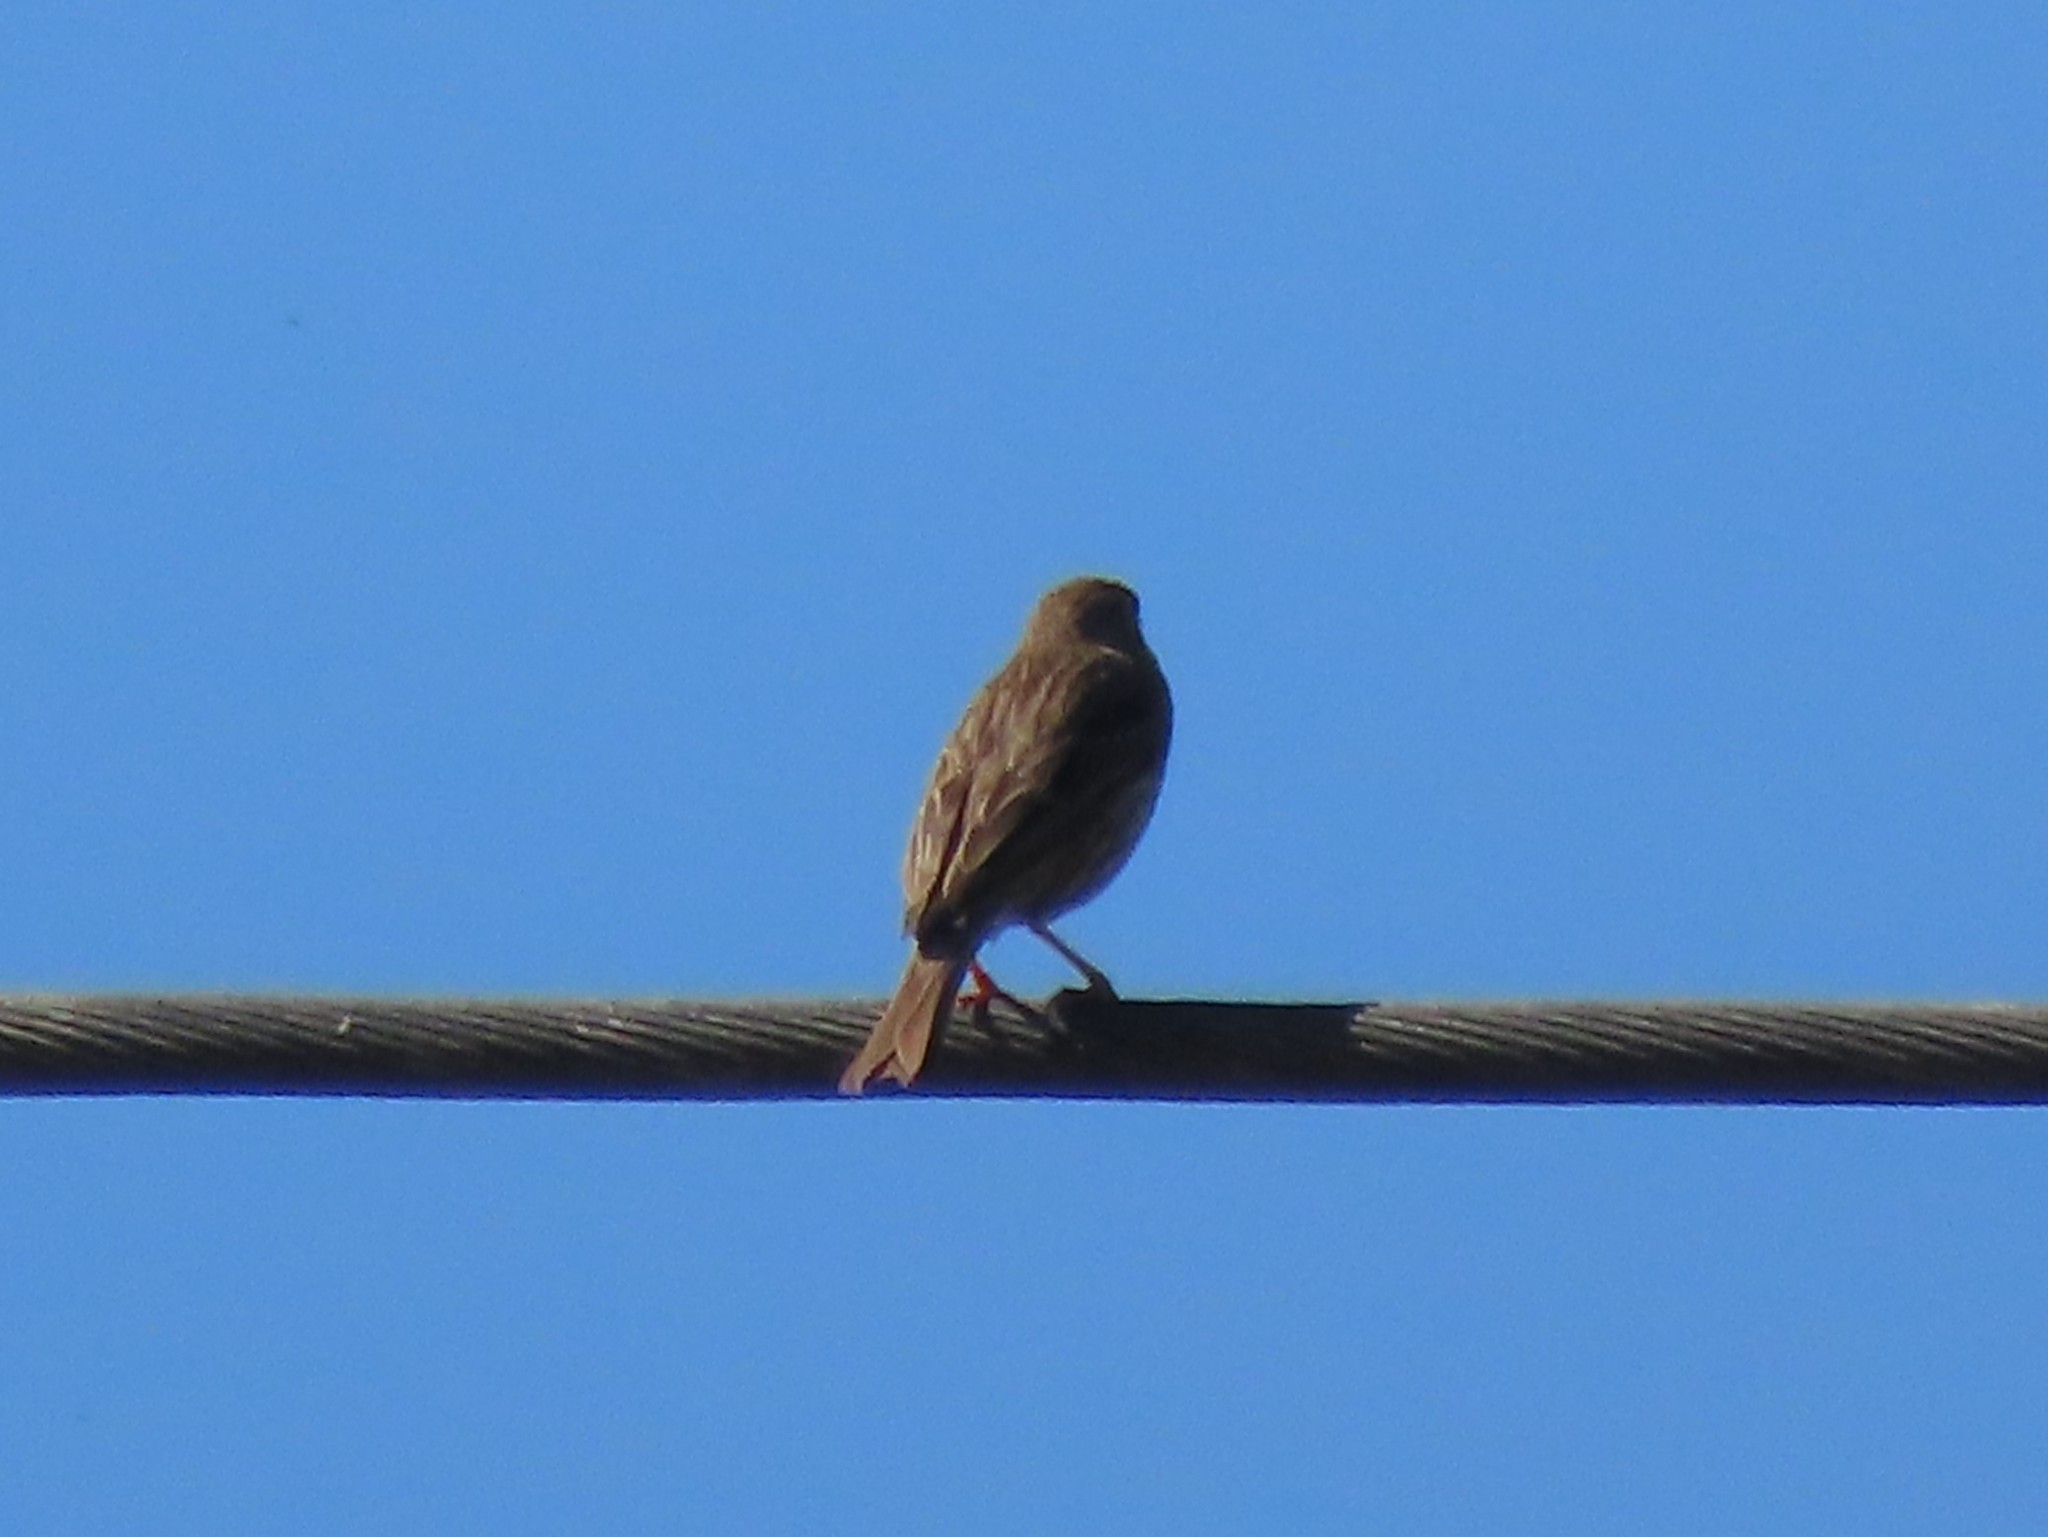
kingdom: Animalia
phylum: Chordata
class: Aves
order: Passeriformes
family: Emberizidae
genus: Emberiza
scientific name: Emberiza calandra
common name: Corn bunting
